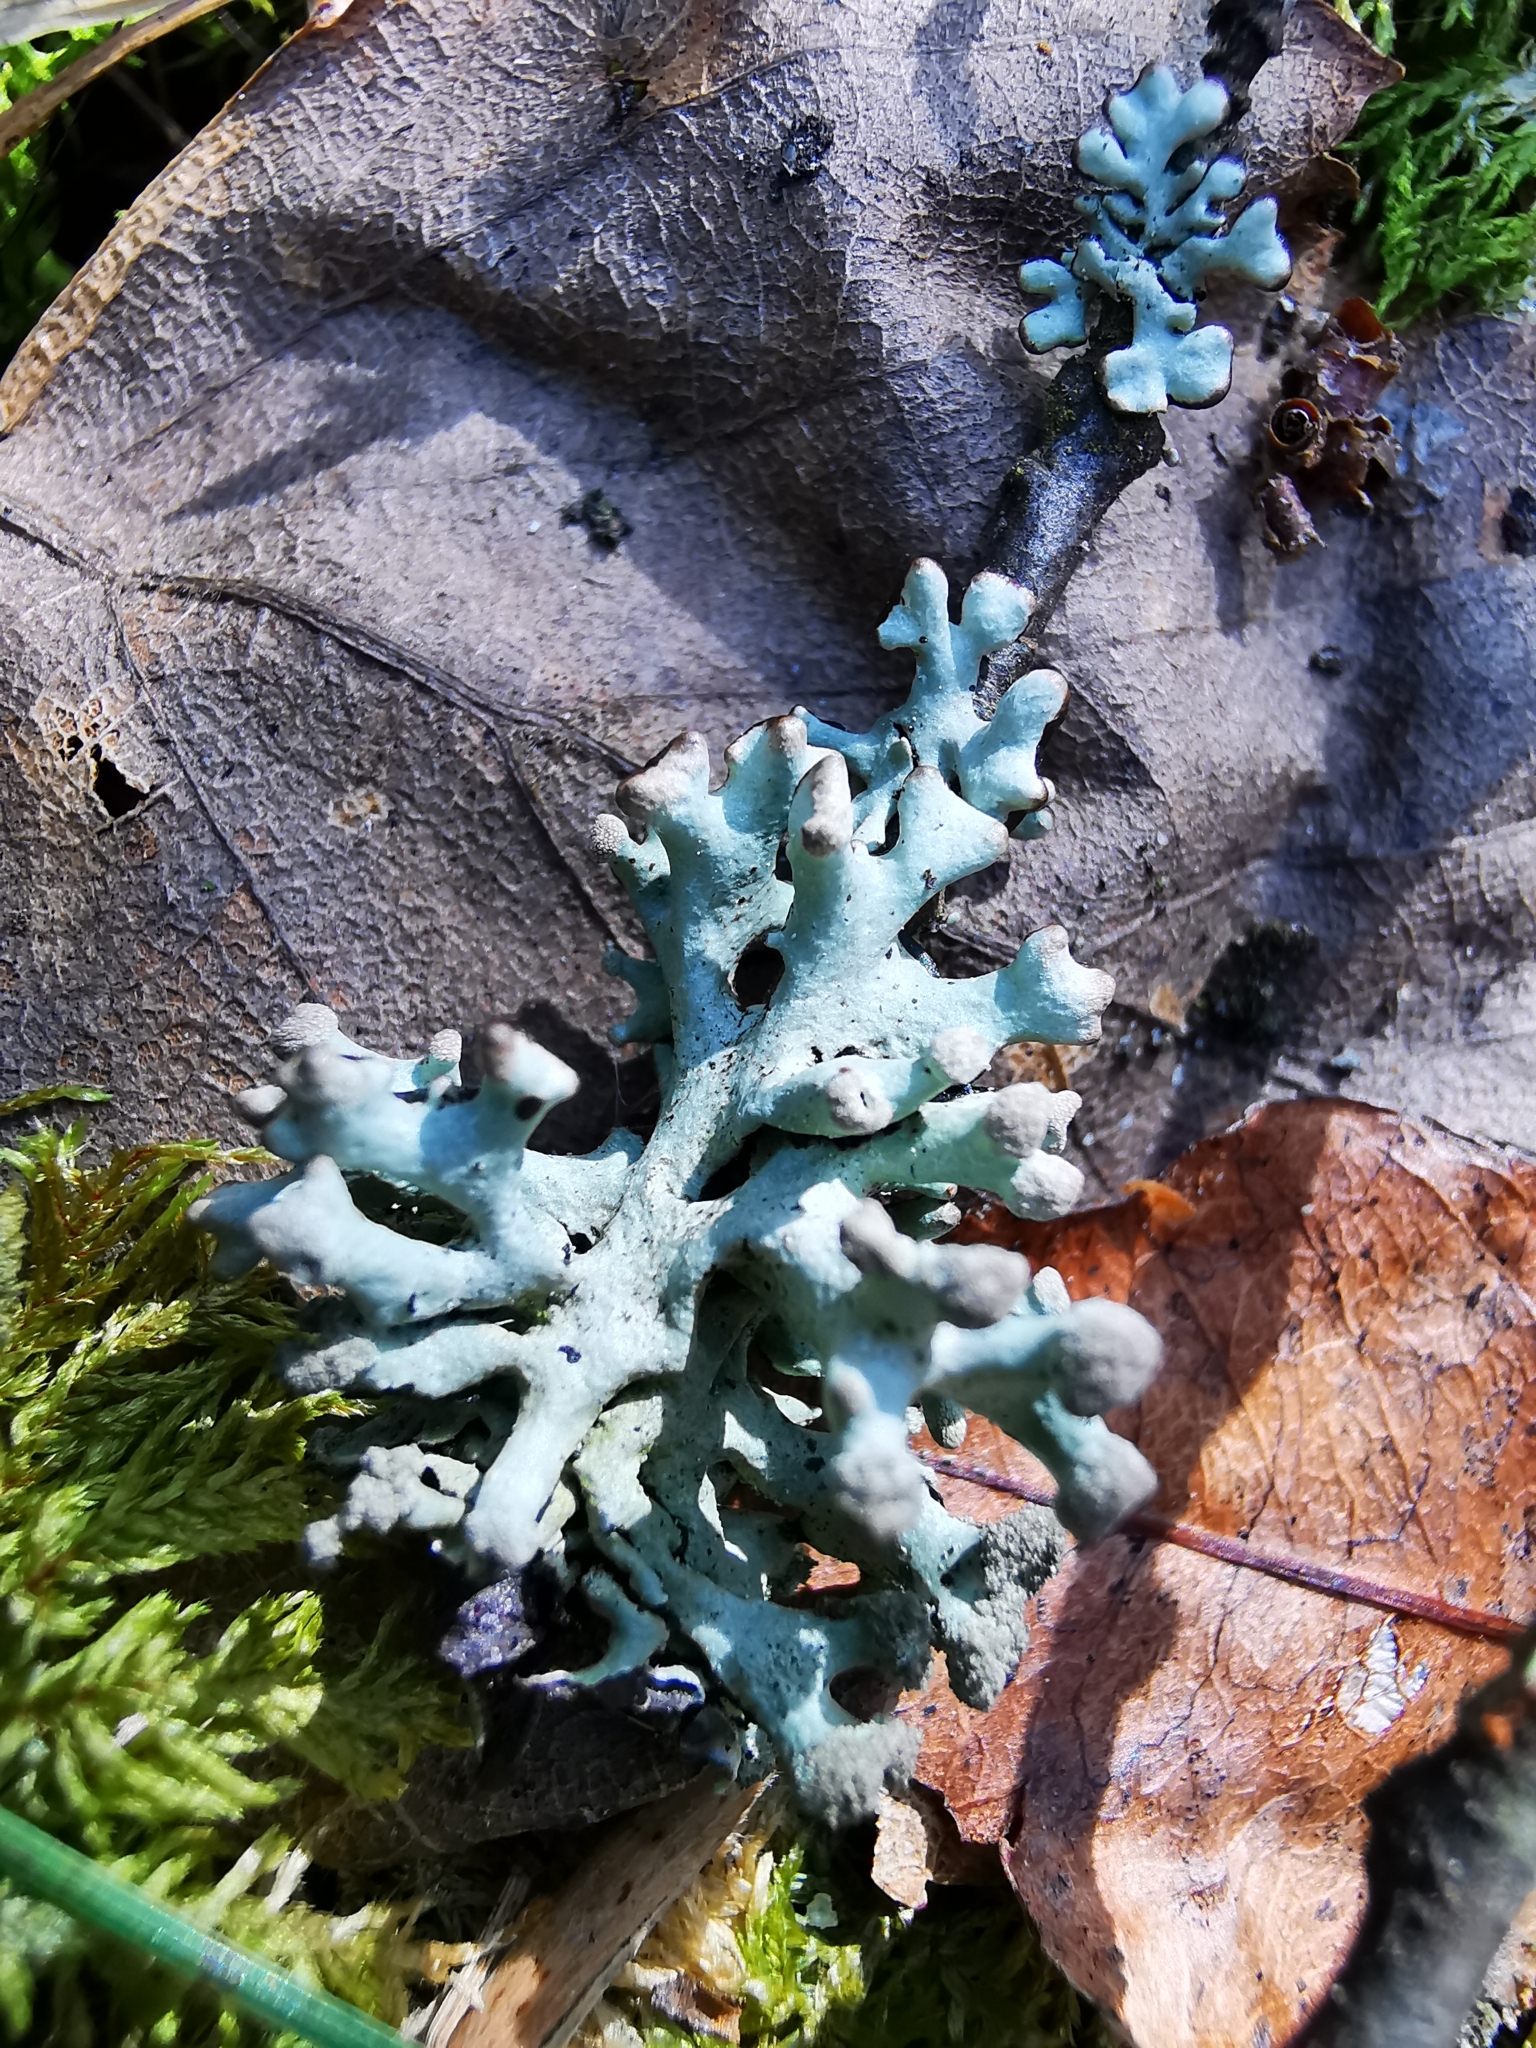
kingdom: Fungi
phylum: Ascomycota
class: Lecanoromycetes
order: Lecanorales
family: Parmeliaceae
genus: Hypogymnia
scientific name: Hypogymnia tubulosa
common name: Powder-headed tube lichen
